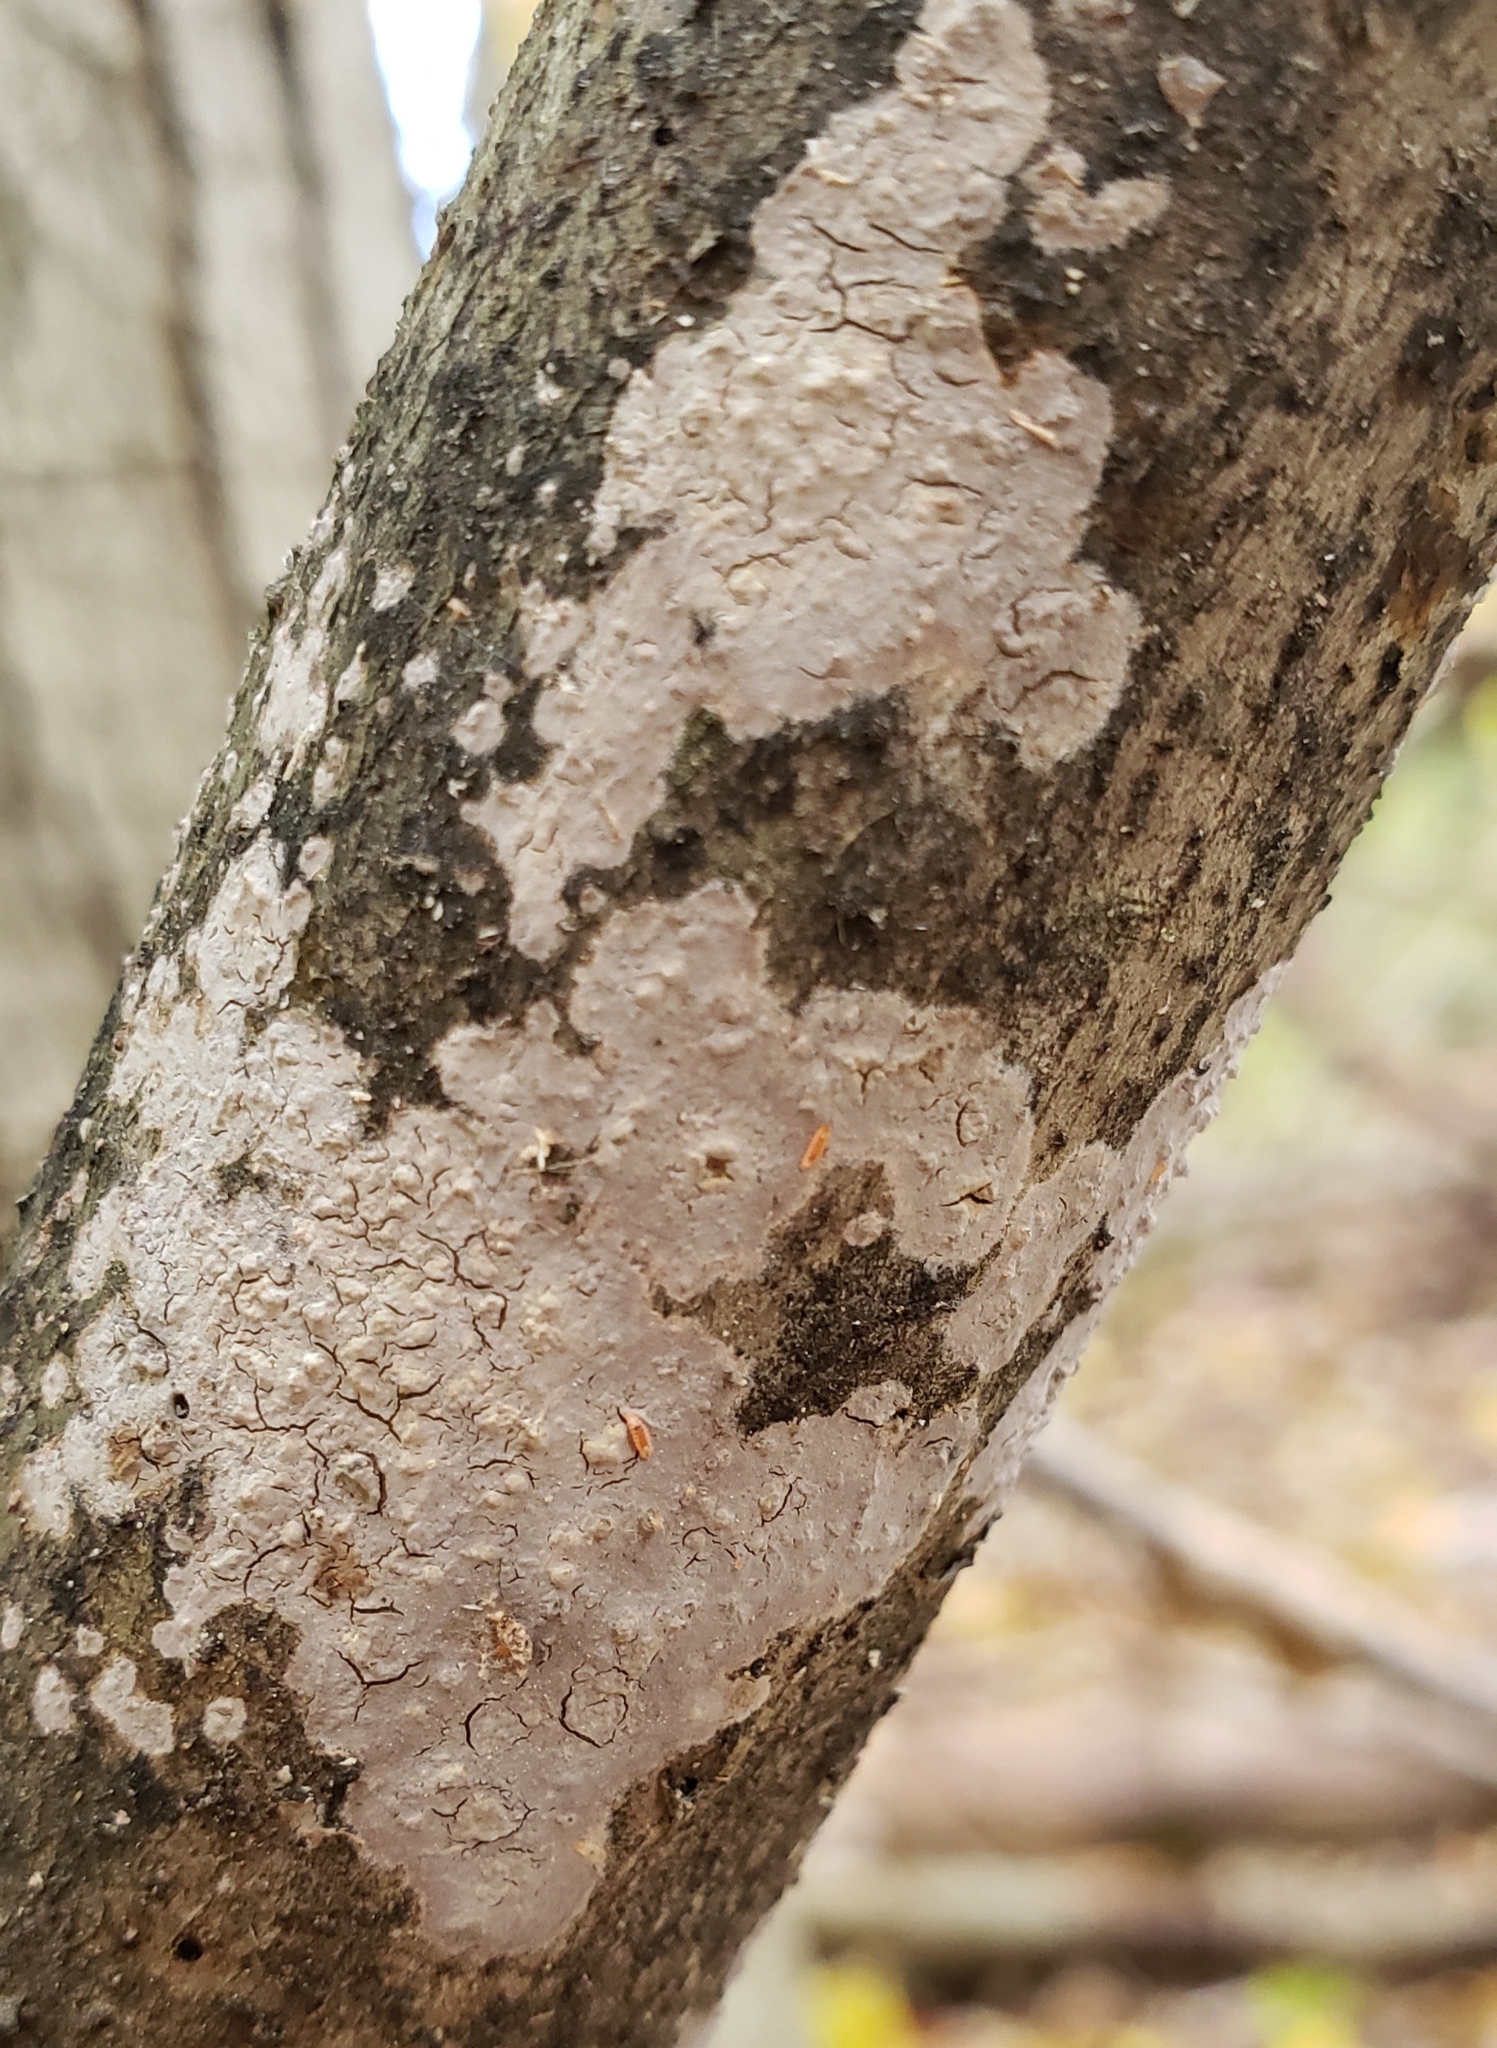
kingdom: Fungi
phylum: Basidiomycota
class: Agaricomycetes
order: Russulales
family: Peniophoraceae
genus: Peniophora
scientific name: Peniophora cinerea
